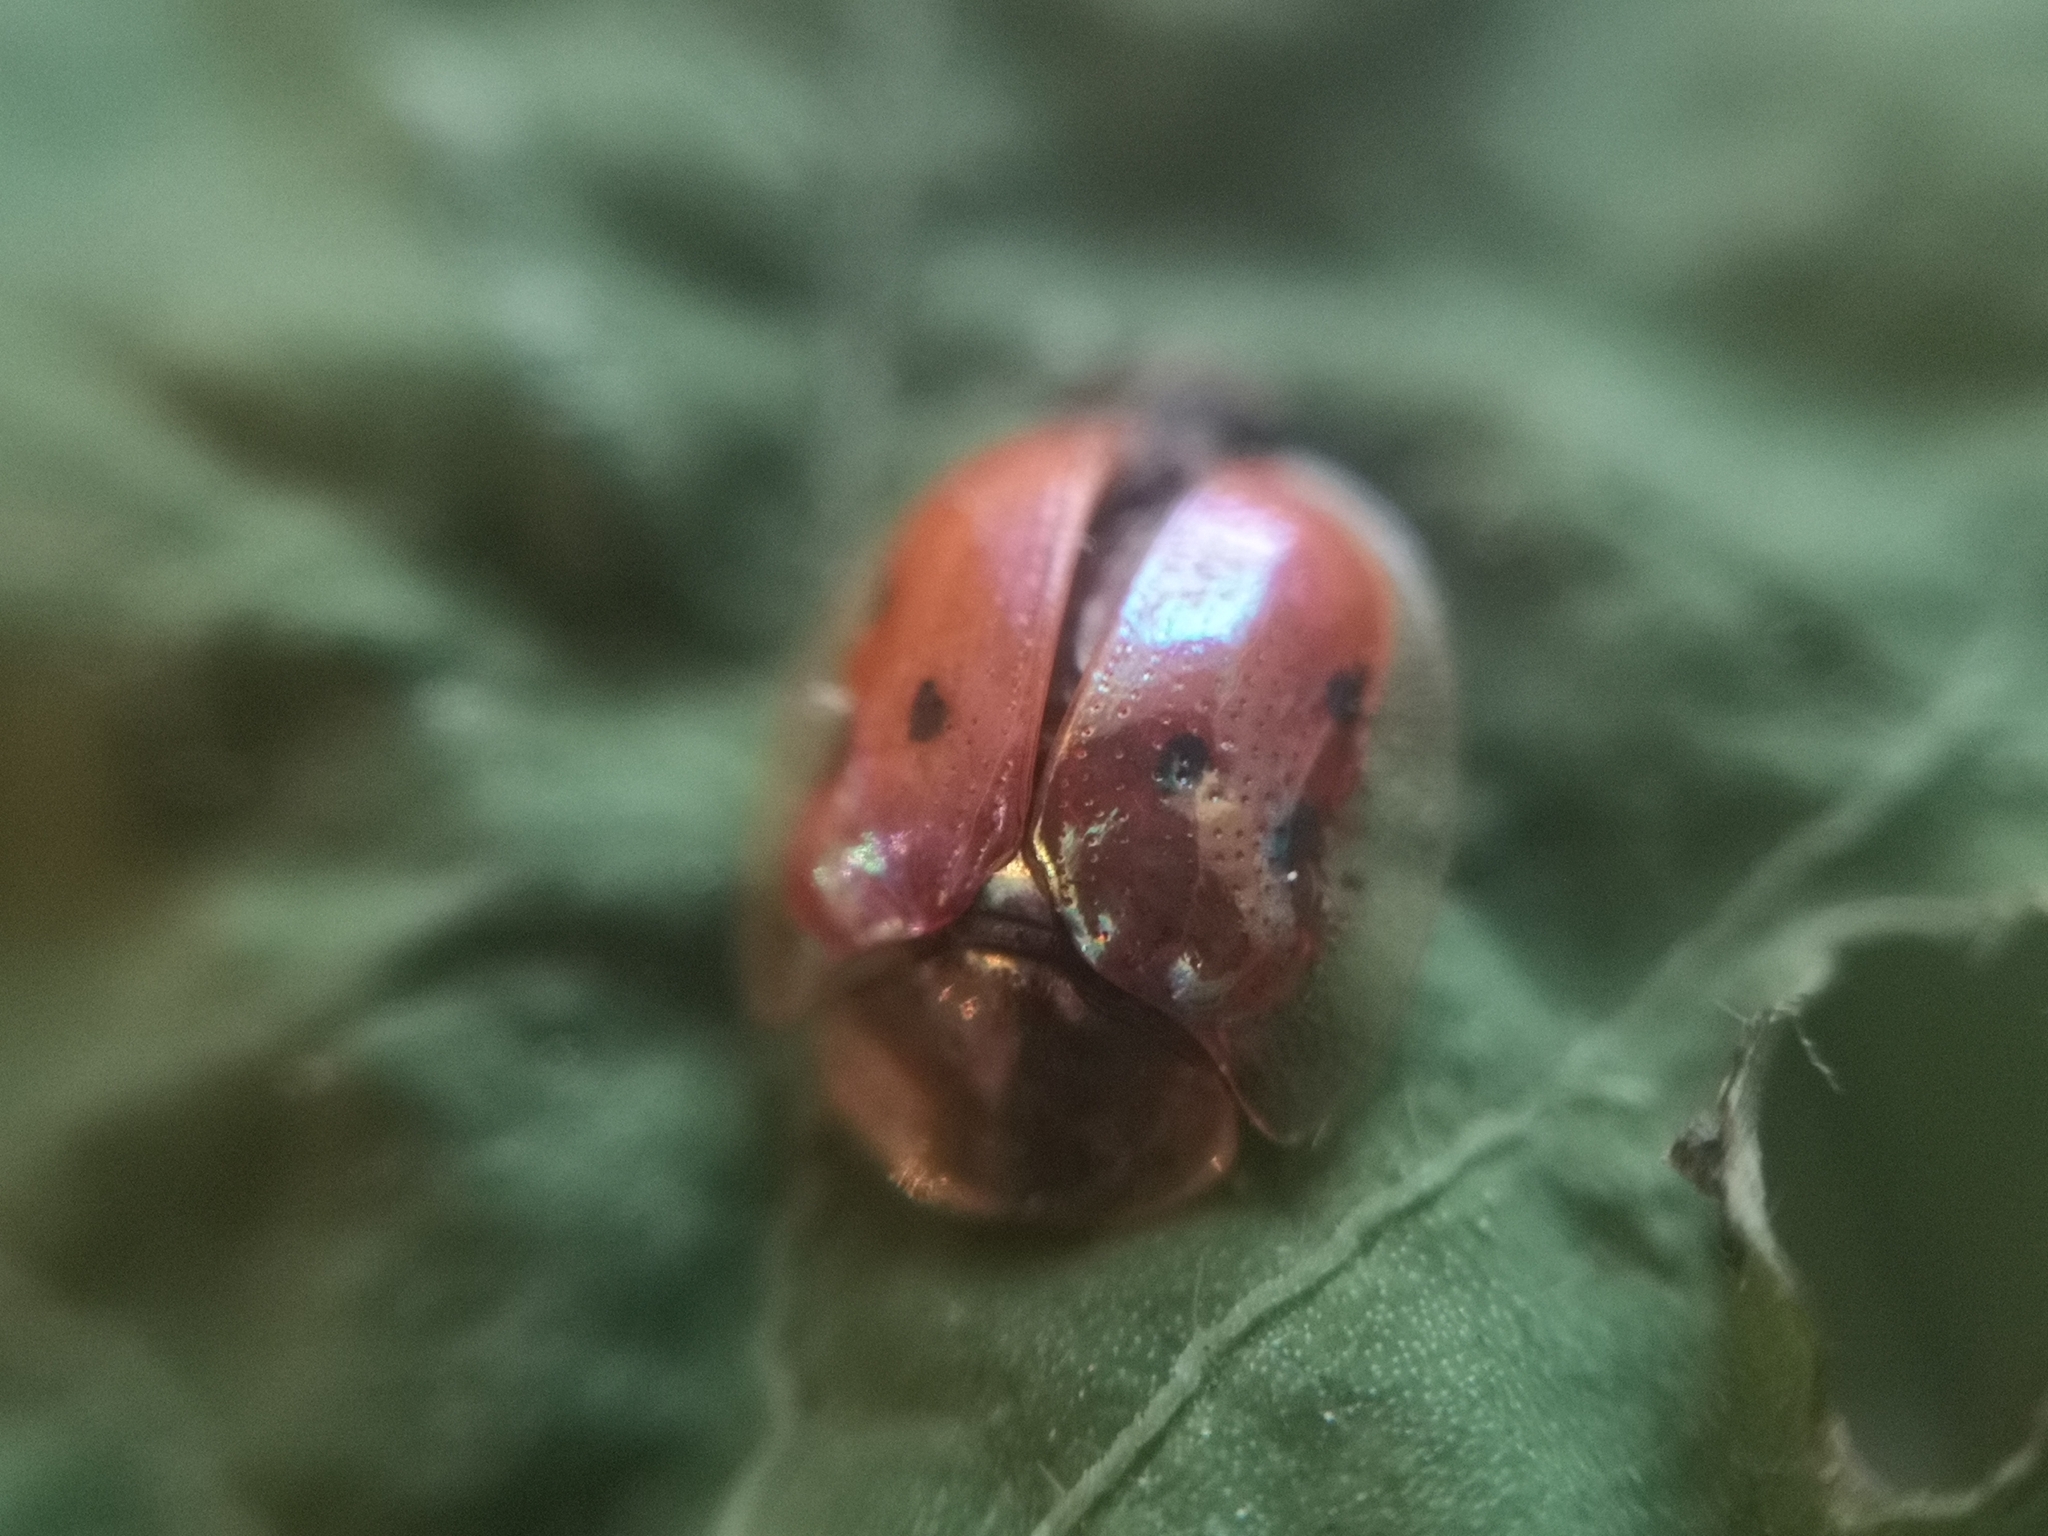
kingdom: Animalia
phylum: Arthropoda
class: Insecta
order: Coleoptera
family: Chrysomelidae
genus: Charidotella
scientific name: Charidotella sexpunctata
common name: Golden tortoise beetle
